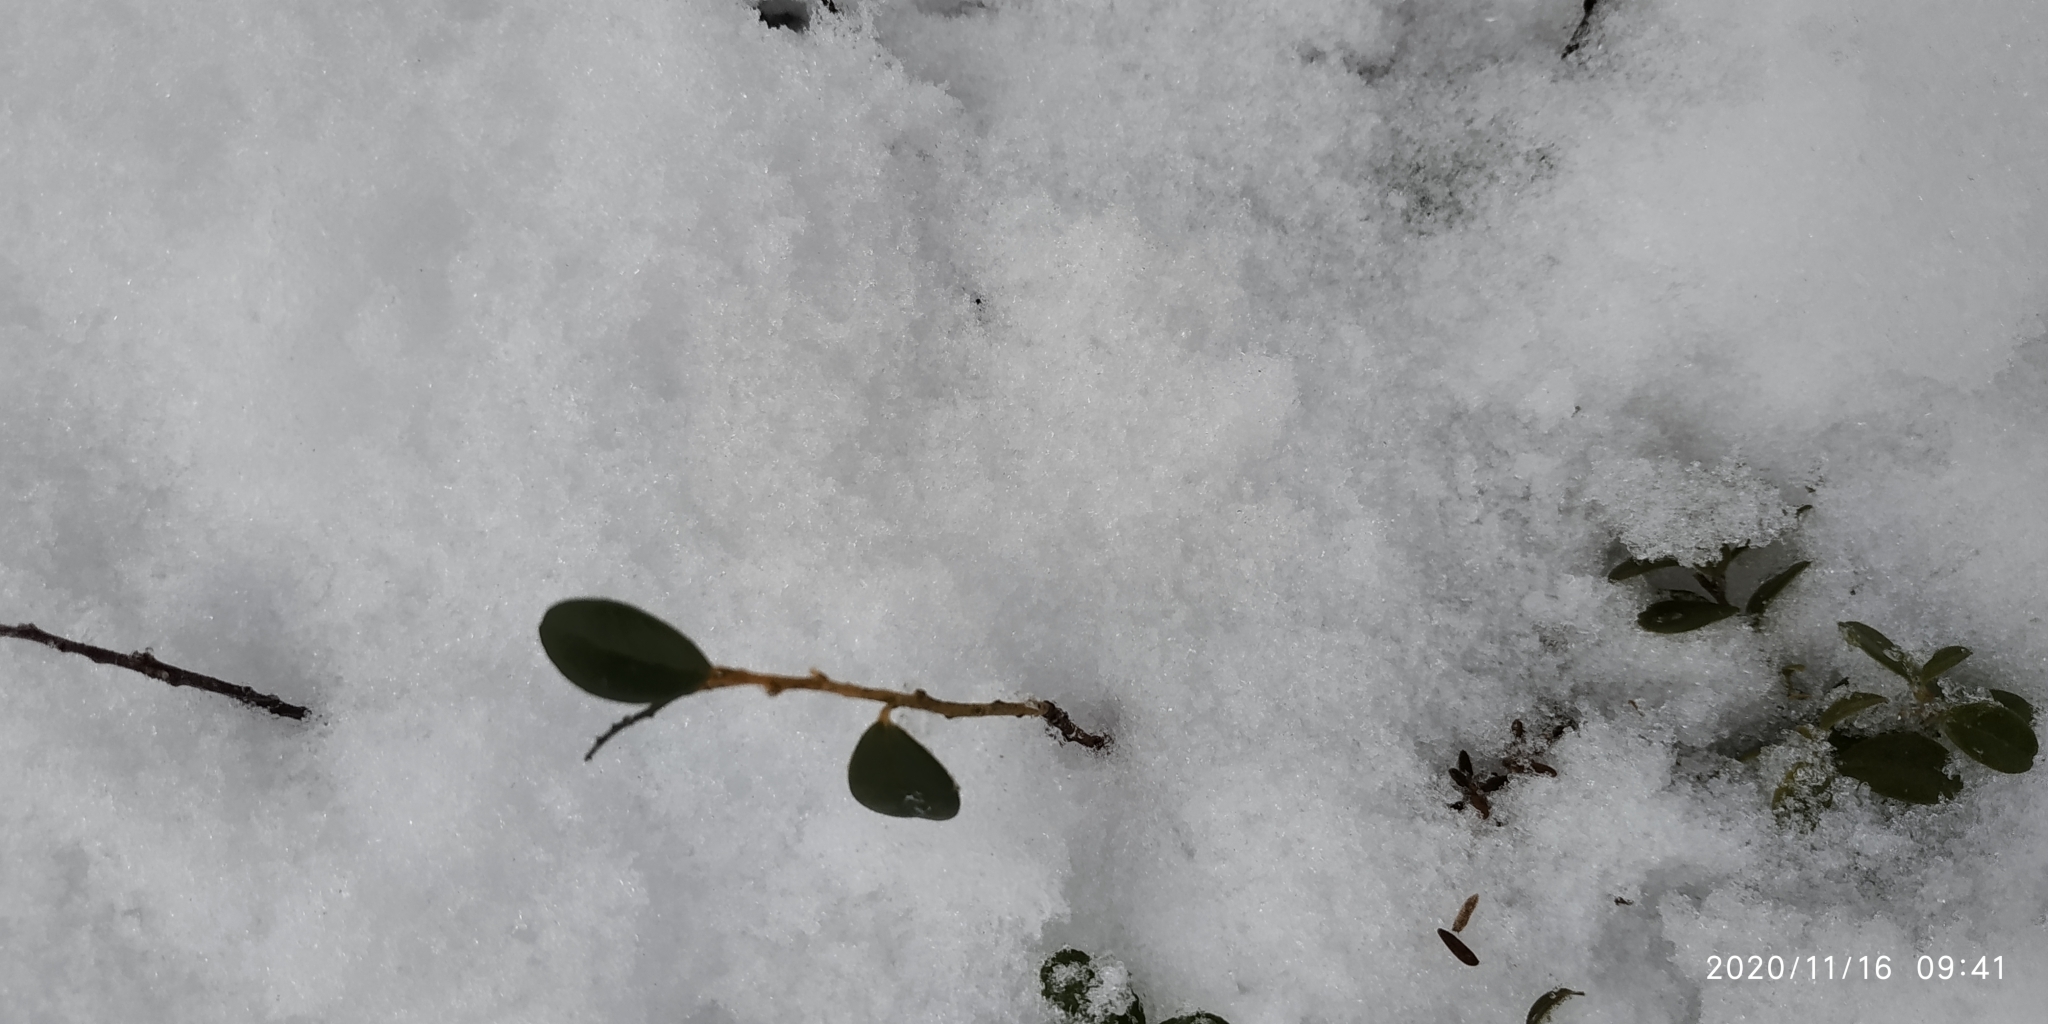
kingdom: Plantae
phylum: Tracheophyta
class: Magnoliopsida
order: Ericales
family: Ericaceae
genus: Vaccinium
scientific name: Vaccinium vitis-idaea
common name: Cowberry
